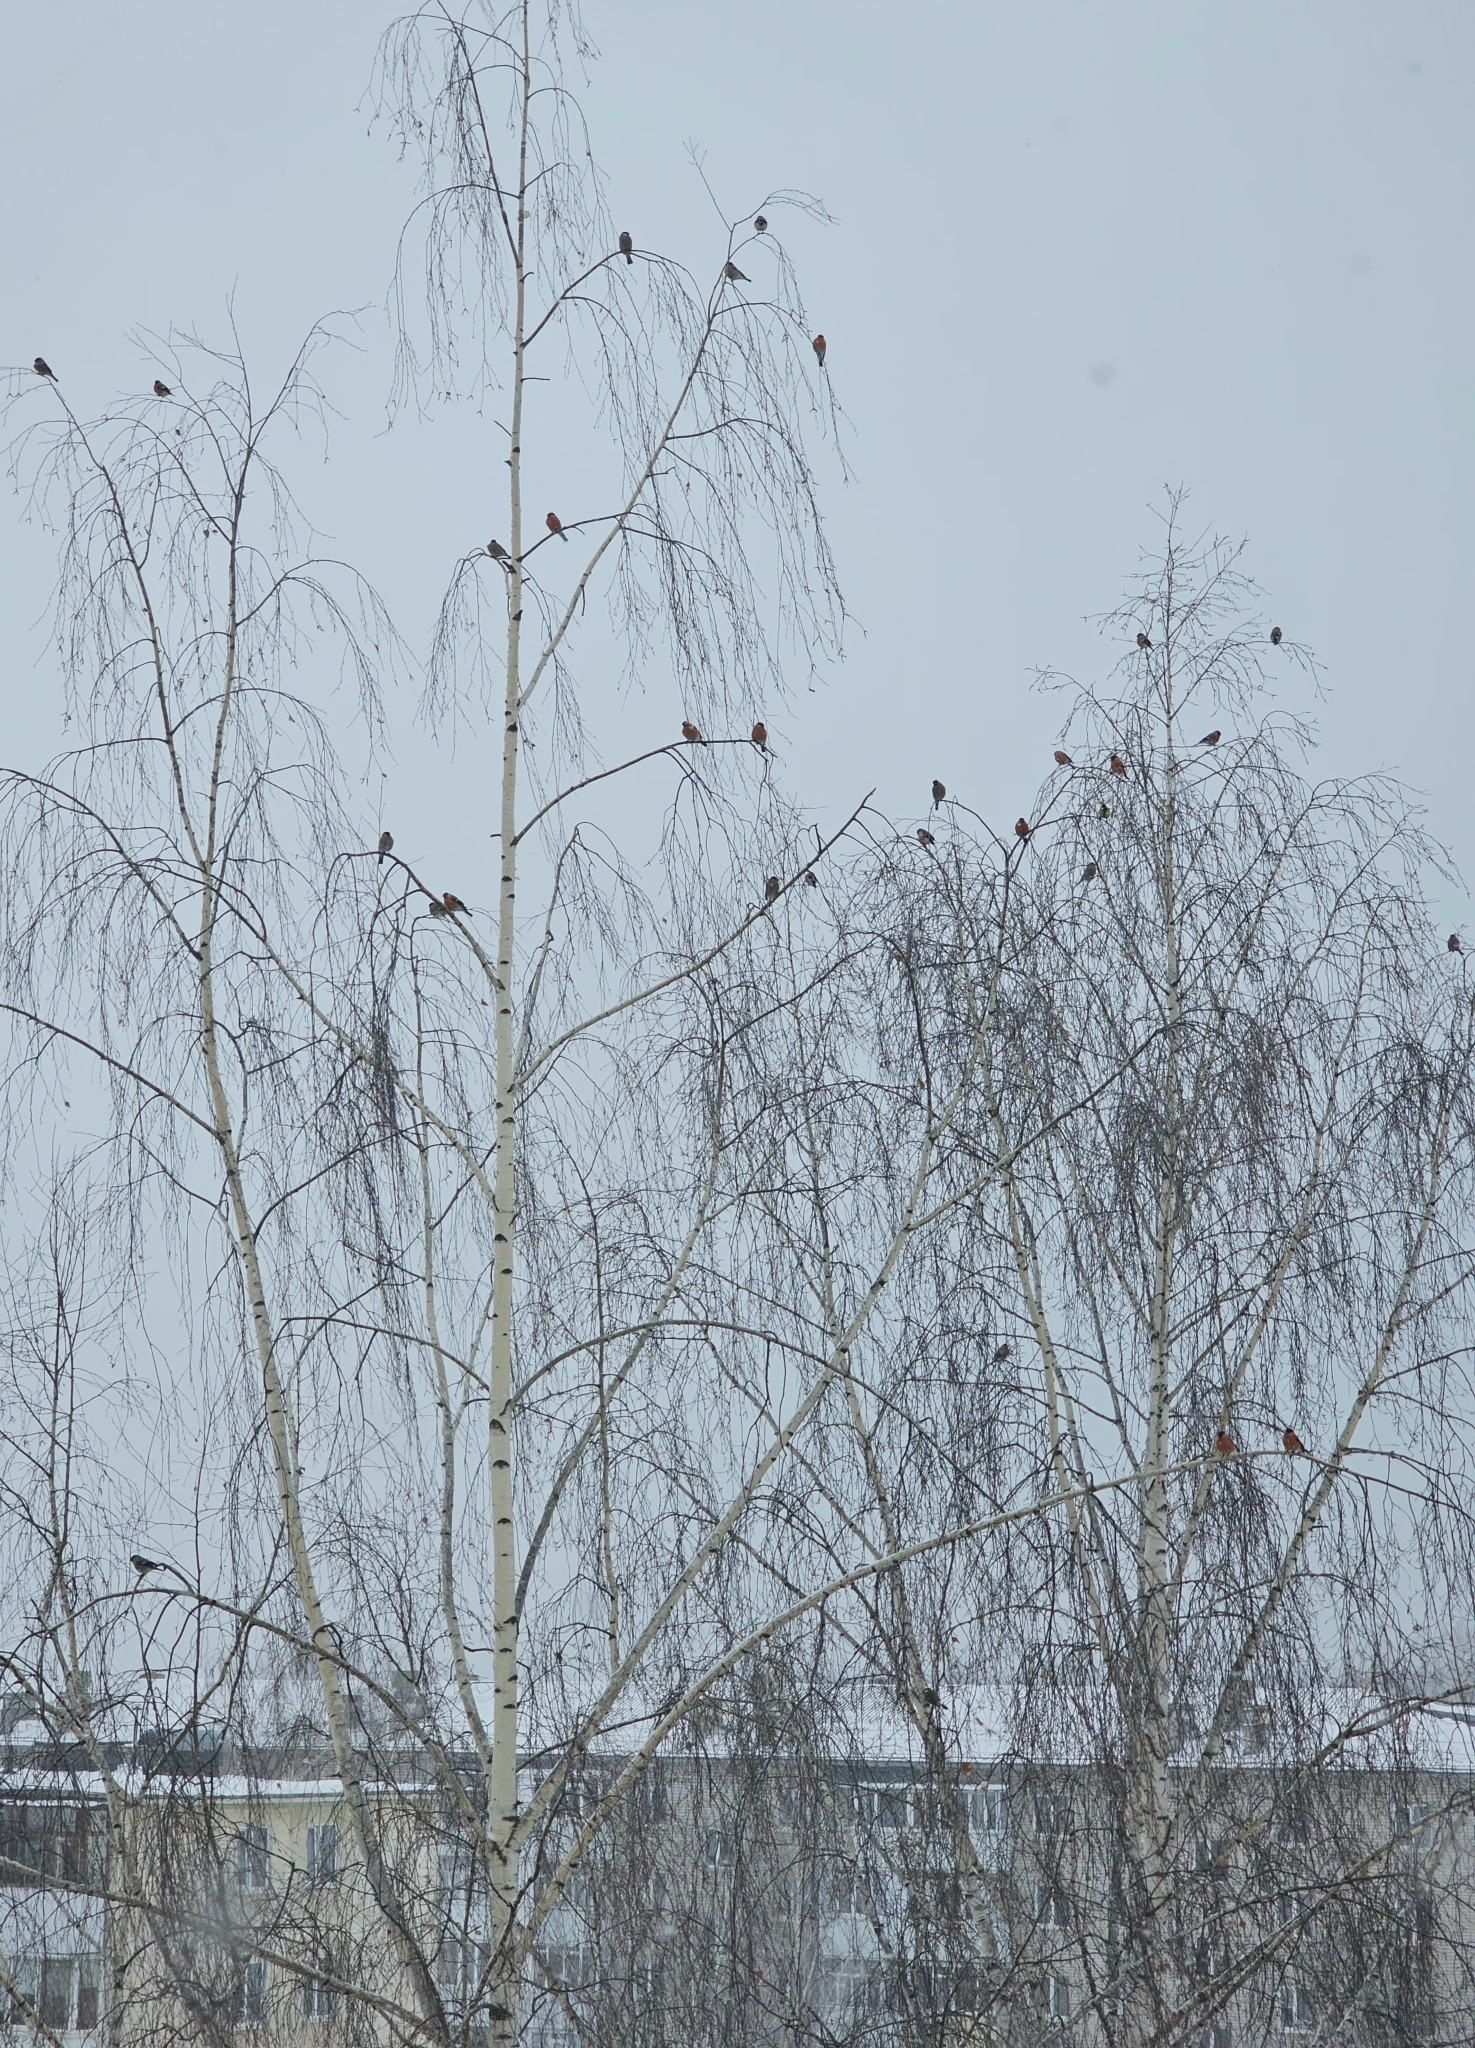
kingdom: Animalia
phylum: Chordata
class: Aves
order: Passeriformes
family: Fringillidae
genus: Pyrrhula
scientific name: Pyrrhula pyrrhula
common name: Eurasian bullfinch
